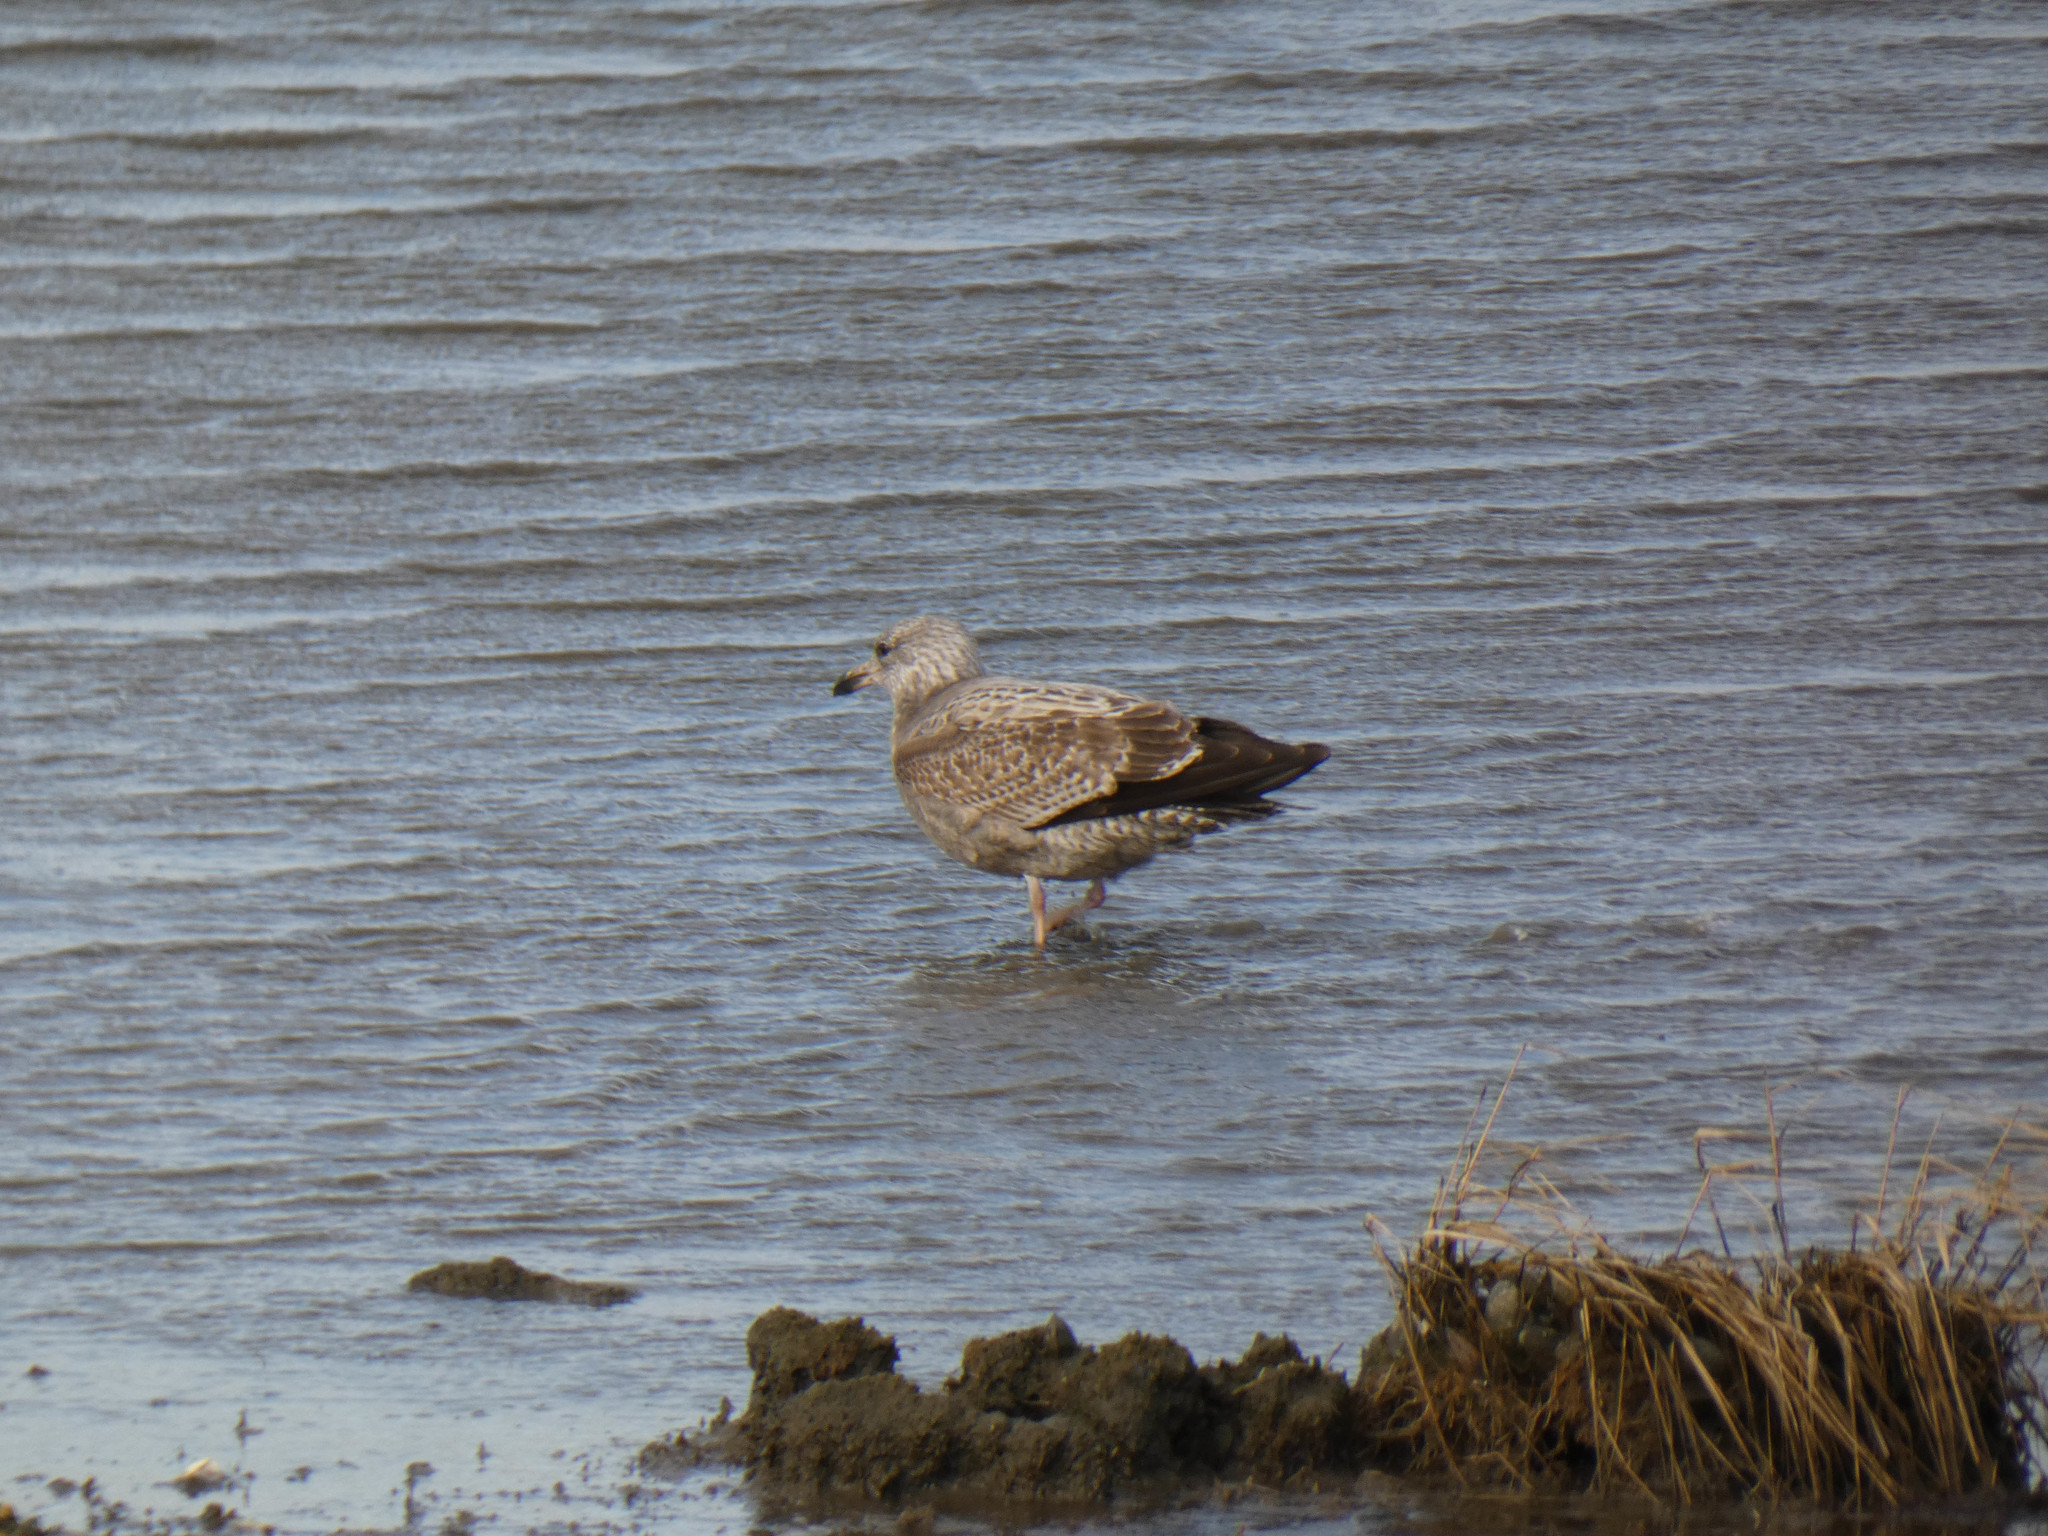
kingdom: Animalia
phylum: Chordata
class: Aves
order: Charadriiformes
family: Laridae
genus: Larus
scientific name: Larus argentatus
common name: Herring gull
